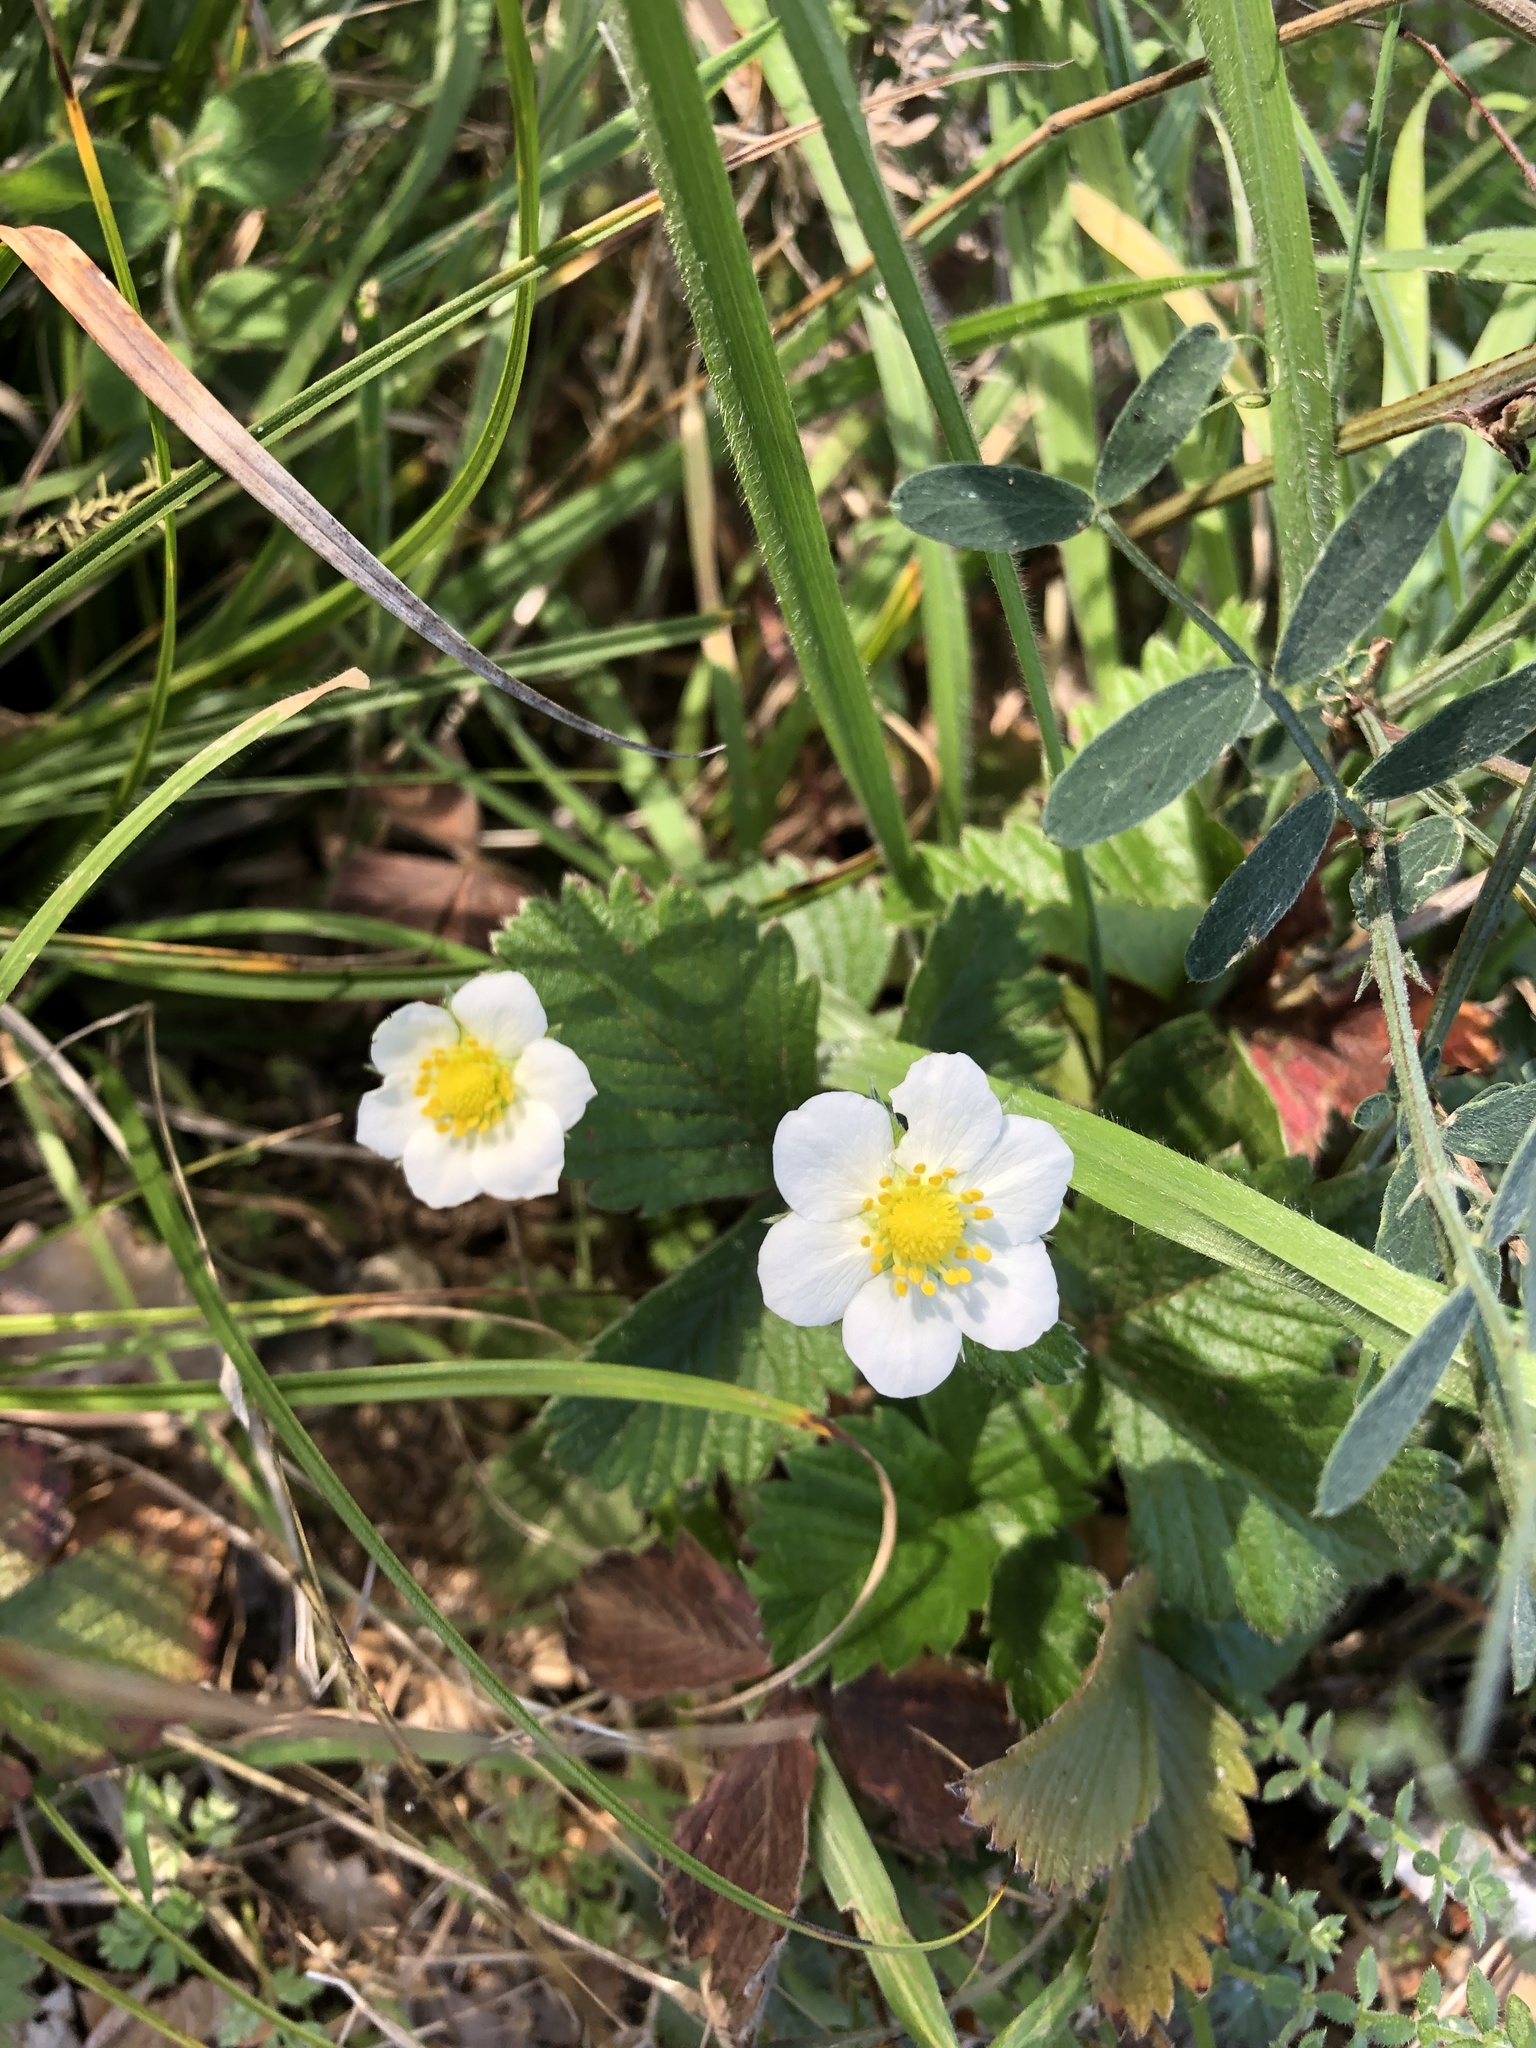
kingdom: Plantae
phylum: Tracheophyta
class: Magnoliopsida
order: Rosales
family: Rosaceae
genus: Fragaria
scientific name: Fragaria vesca
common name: Wild strawberry
